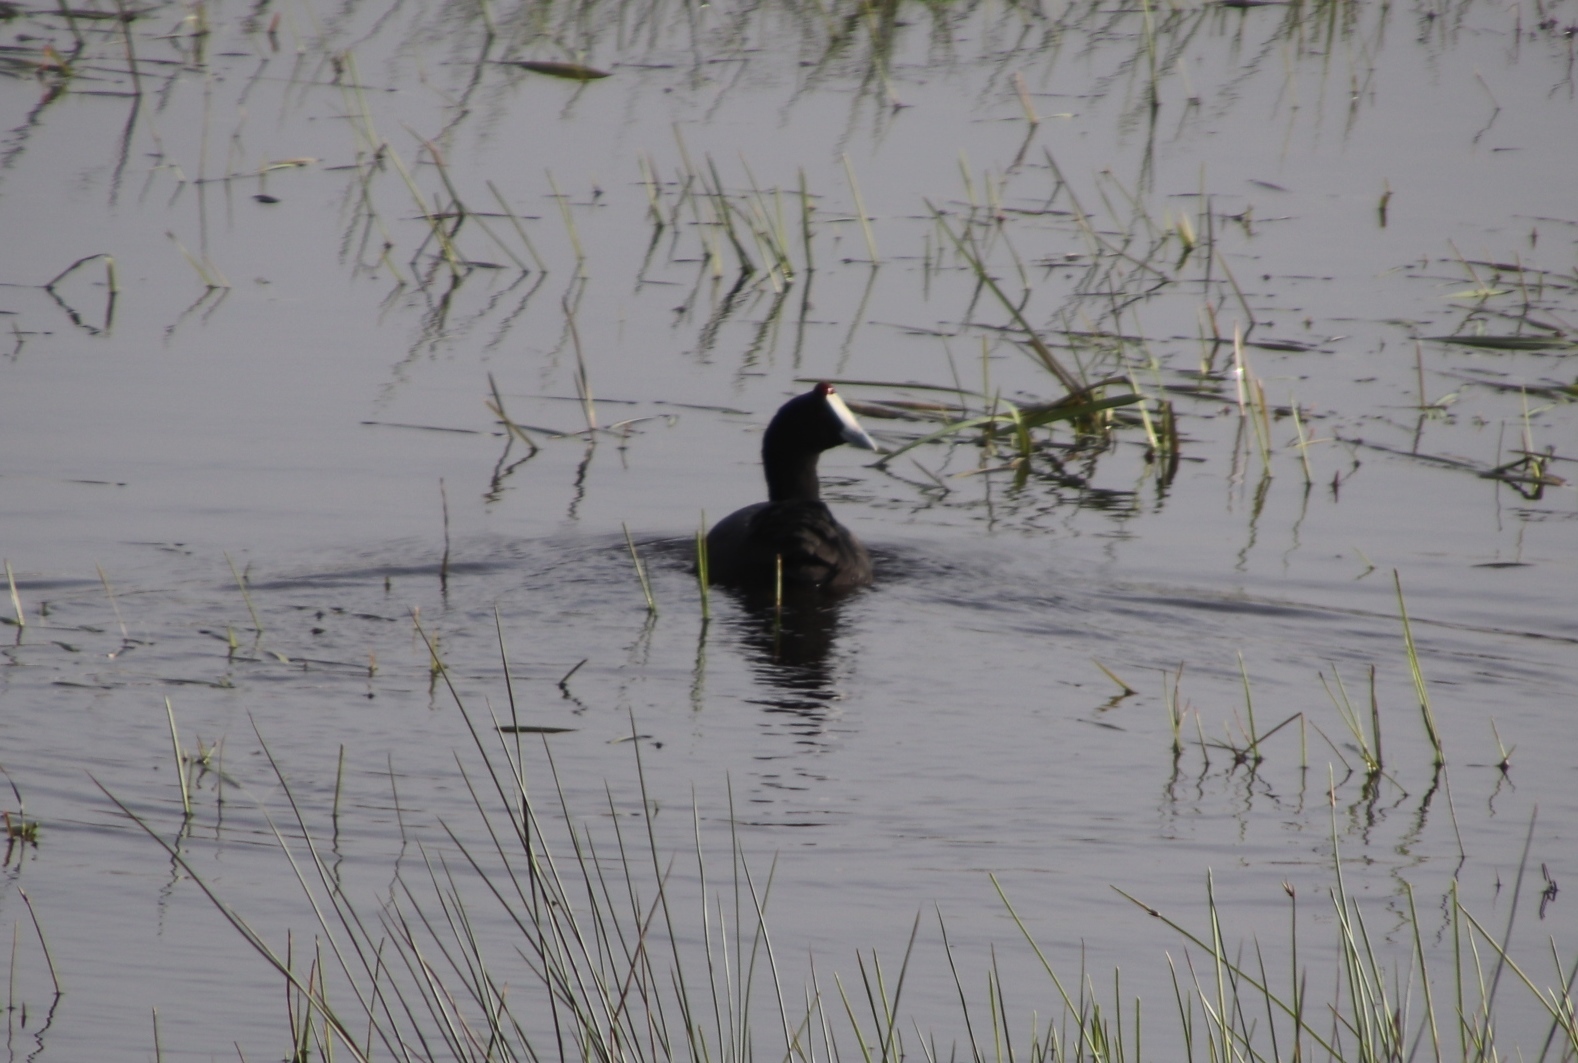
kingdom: Animalia
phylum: Chordata
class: Aves
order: Gruiformes
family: Rallidae
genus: Fulica
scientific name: Fulica cristata
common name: Red-knobbed coot
